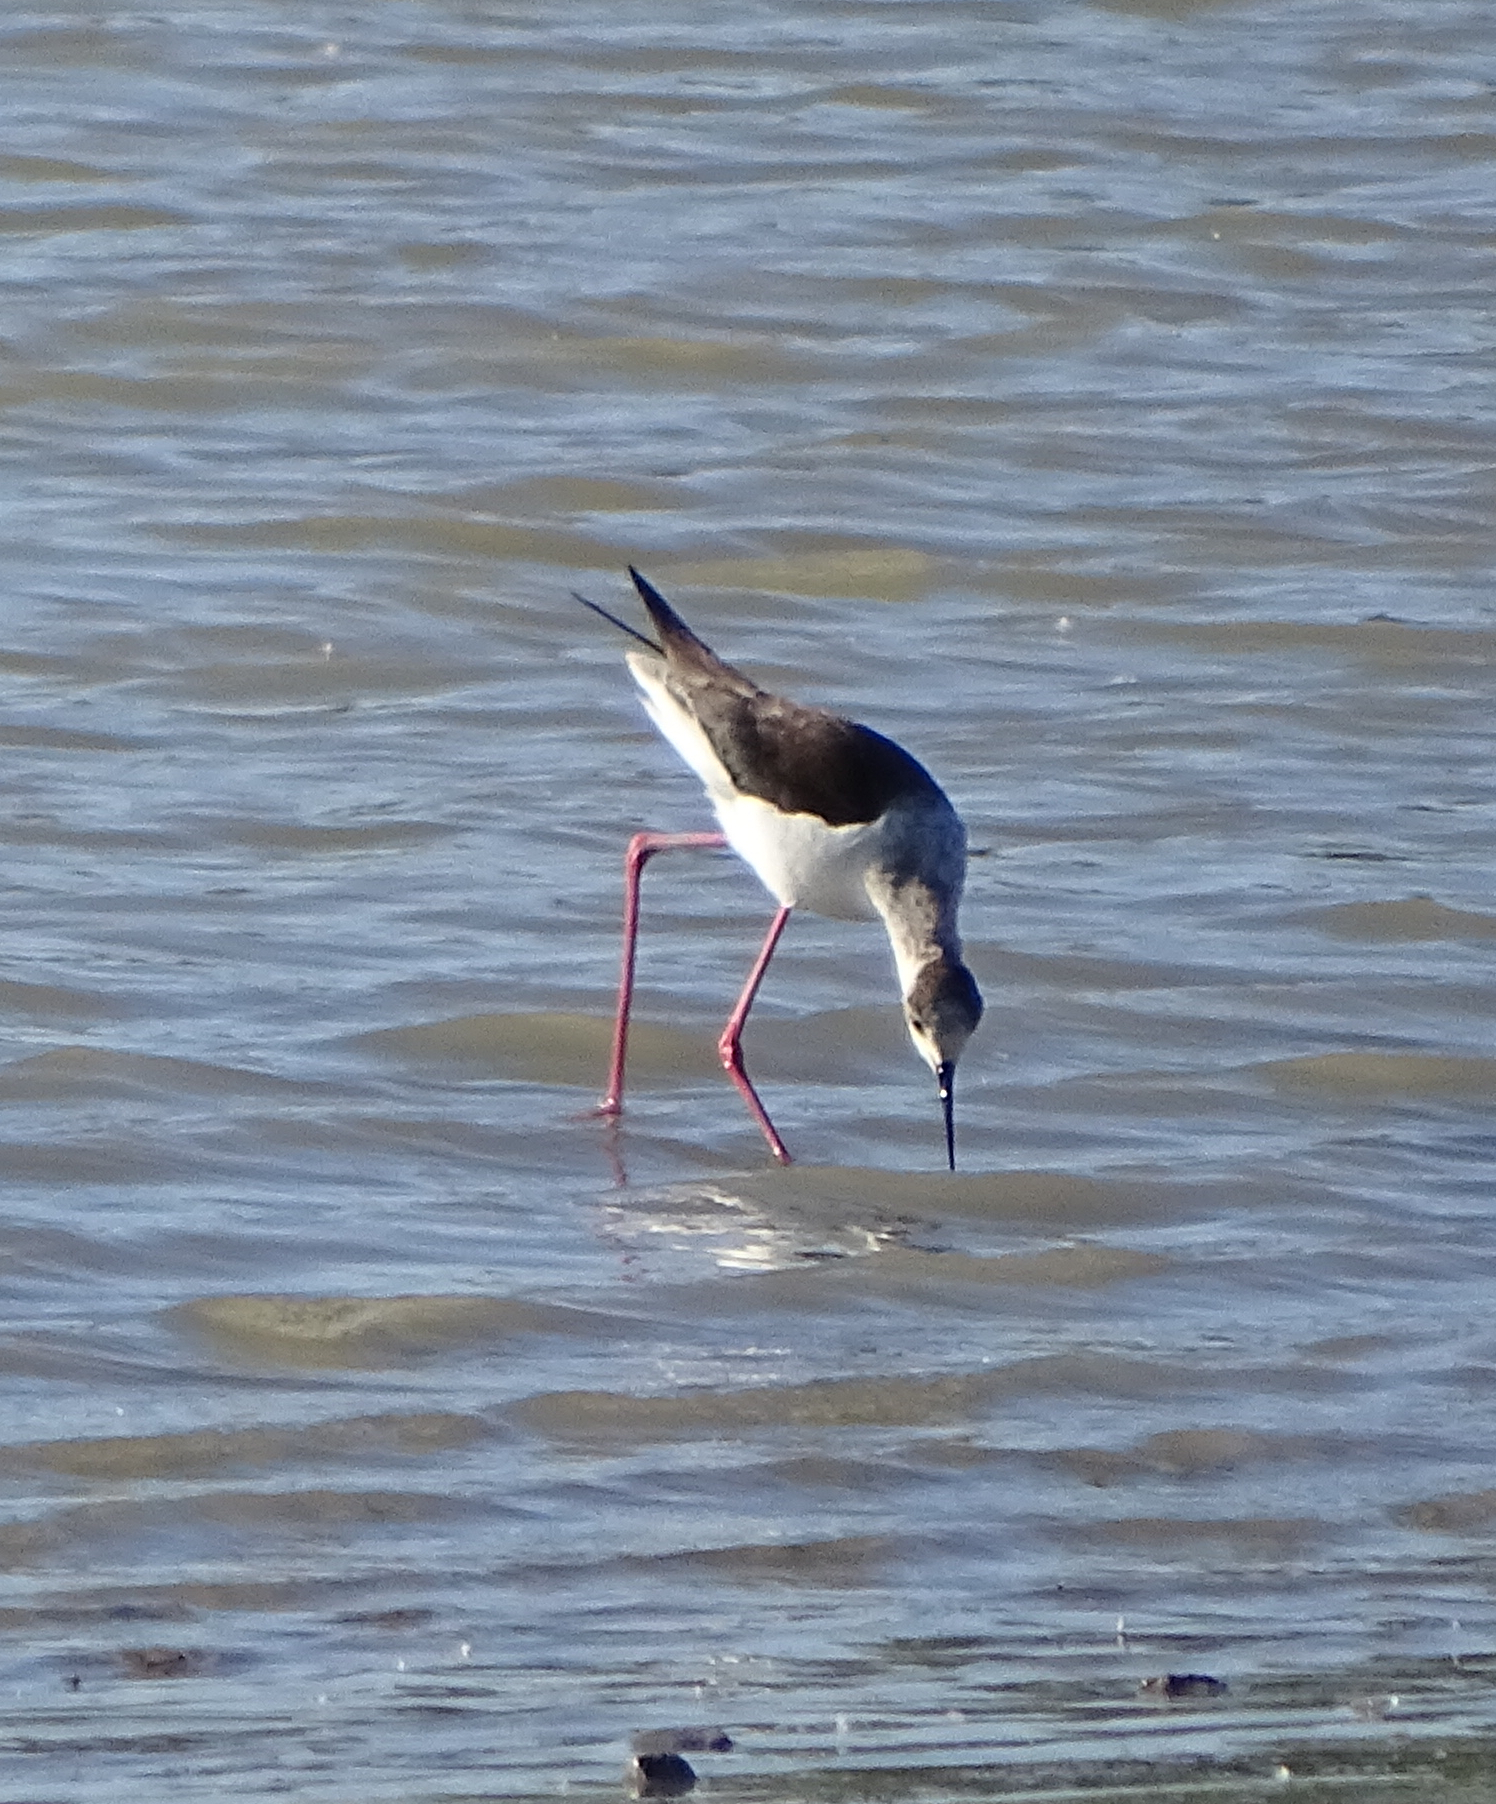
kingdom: Animalia
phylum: Chordata
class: Aves
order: Charadriiformes
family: Recurvirostridae
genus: Himantopus
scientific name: Himantopus himantopus
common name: Black-winged stilt
